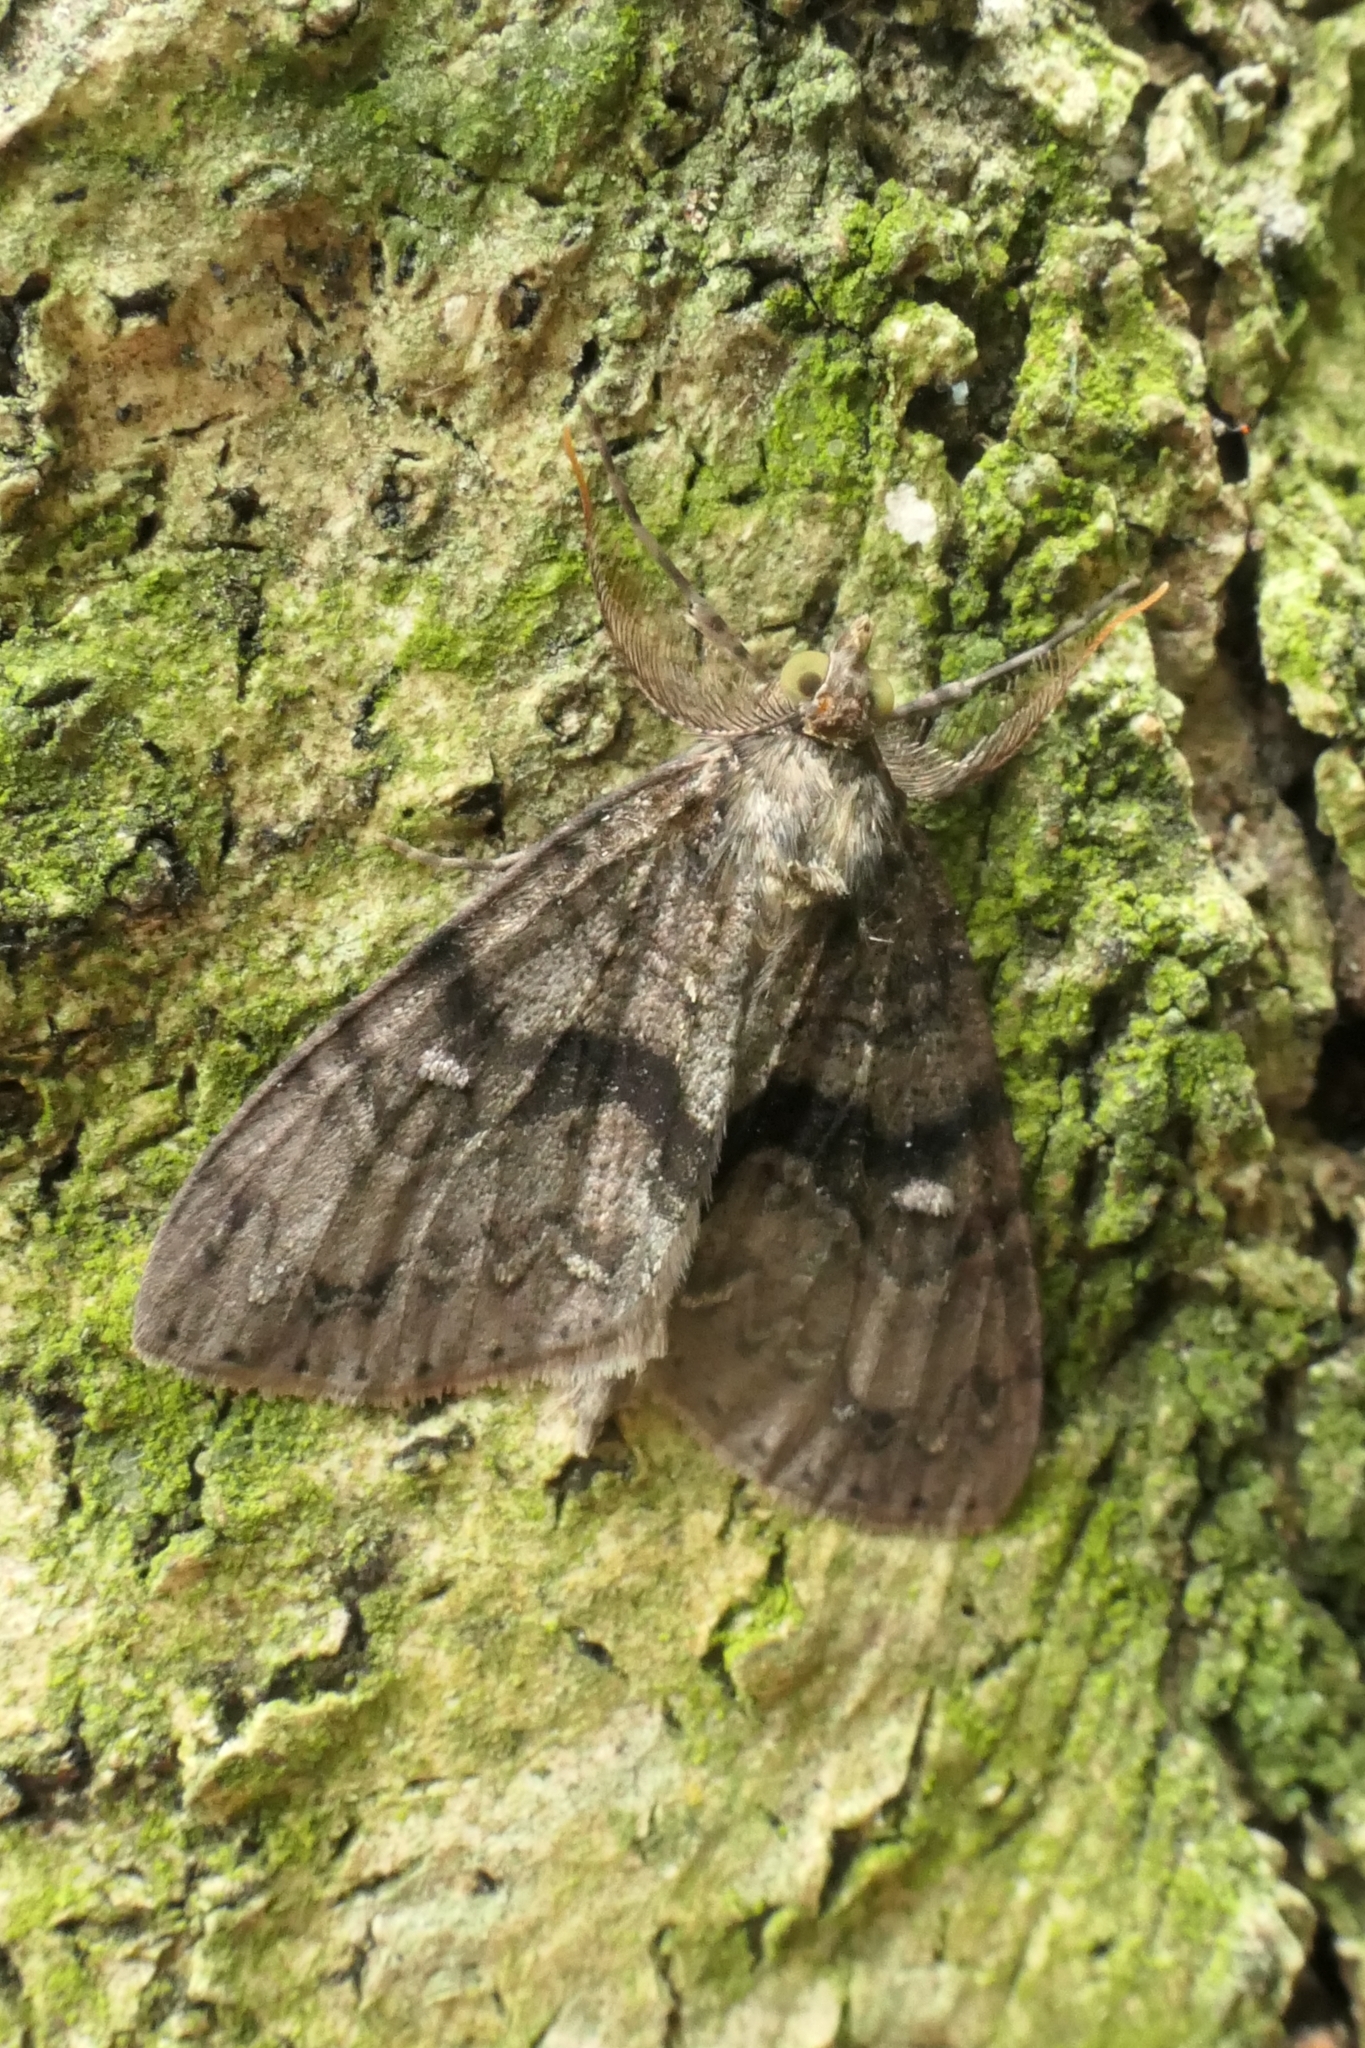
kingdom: Animalia
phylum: Arthropoda
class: Insecta
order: Lepidoptera
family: Geometridae
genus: Pseudocoremia
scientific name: Pseudocoremia suavis
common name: Common forest looper
